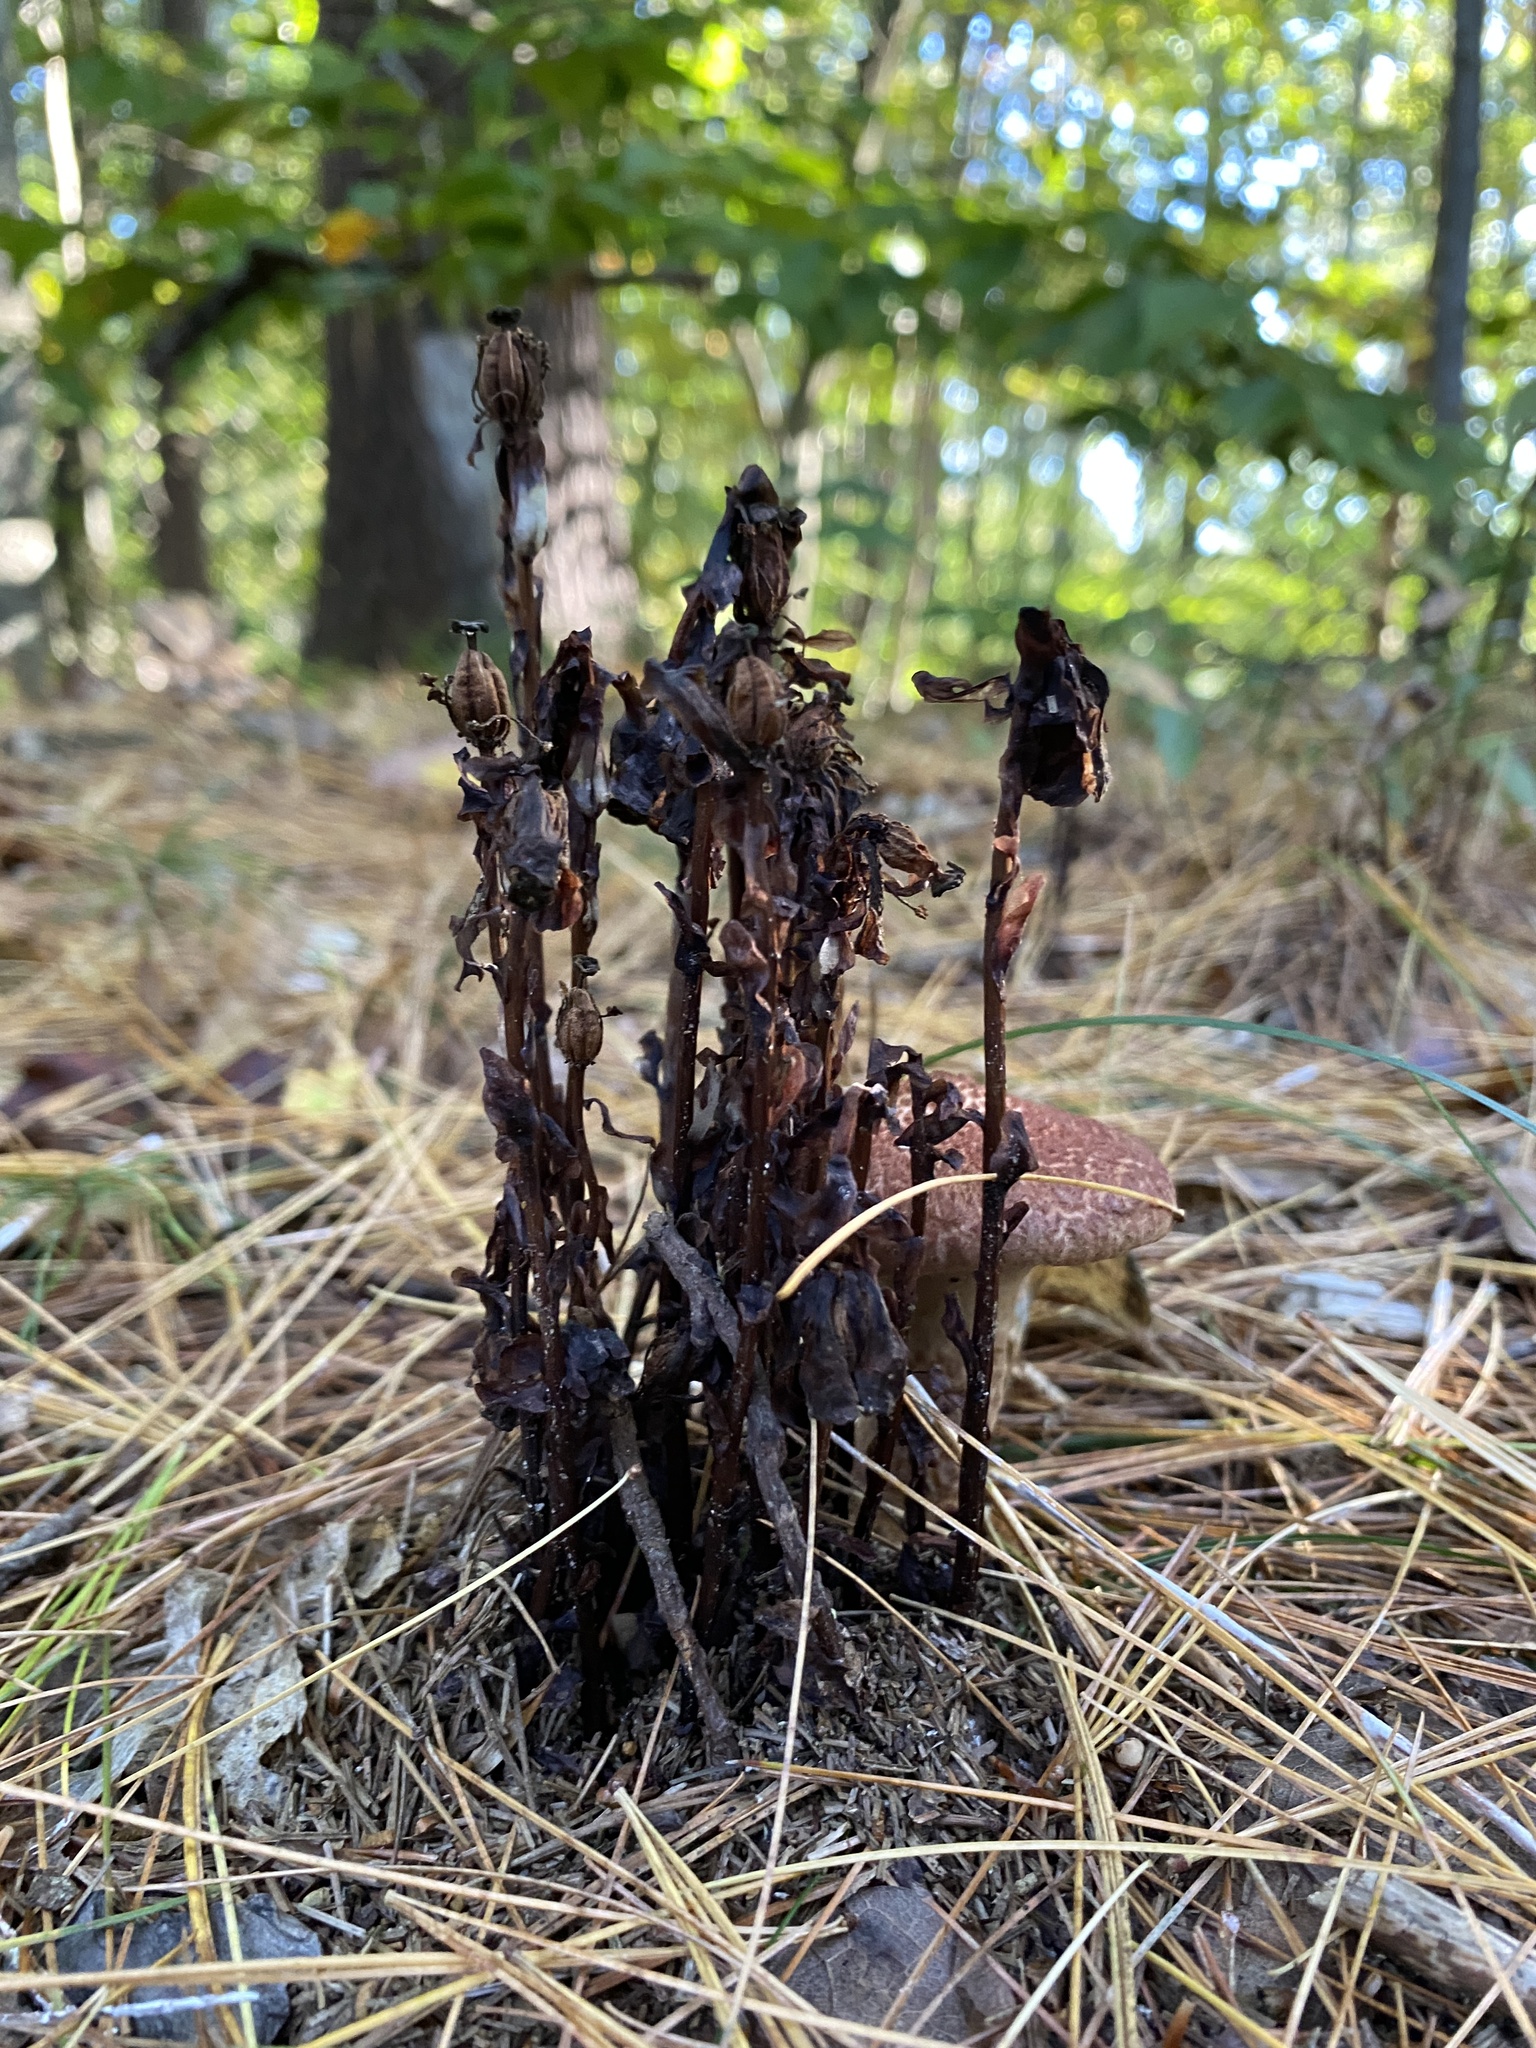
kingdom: Plantae
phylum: Tracheophyta
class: Magnoliopsida
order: Ericales
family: Ericaceae
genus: Monotropa
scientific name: Monotropa uniflora
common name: Convulsion root
